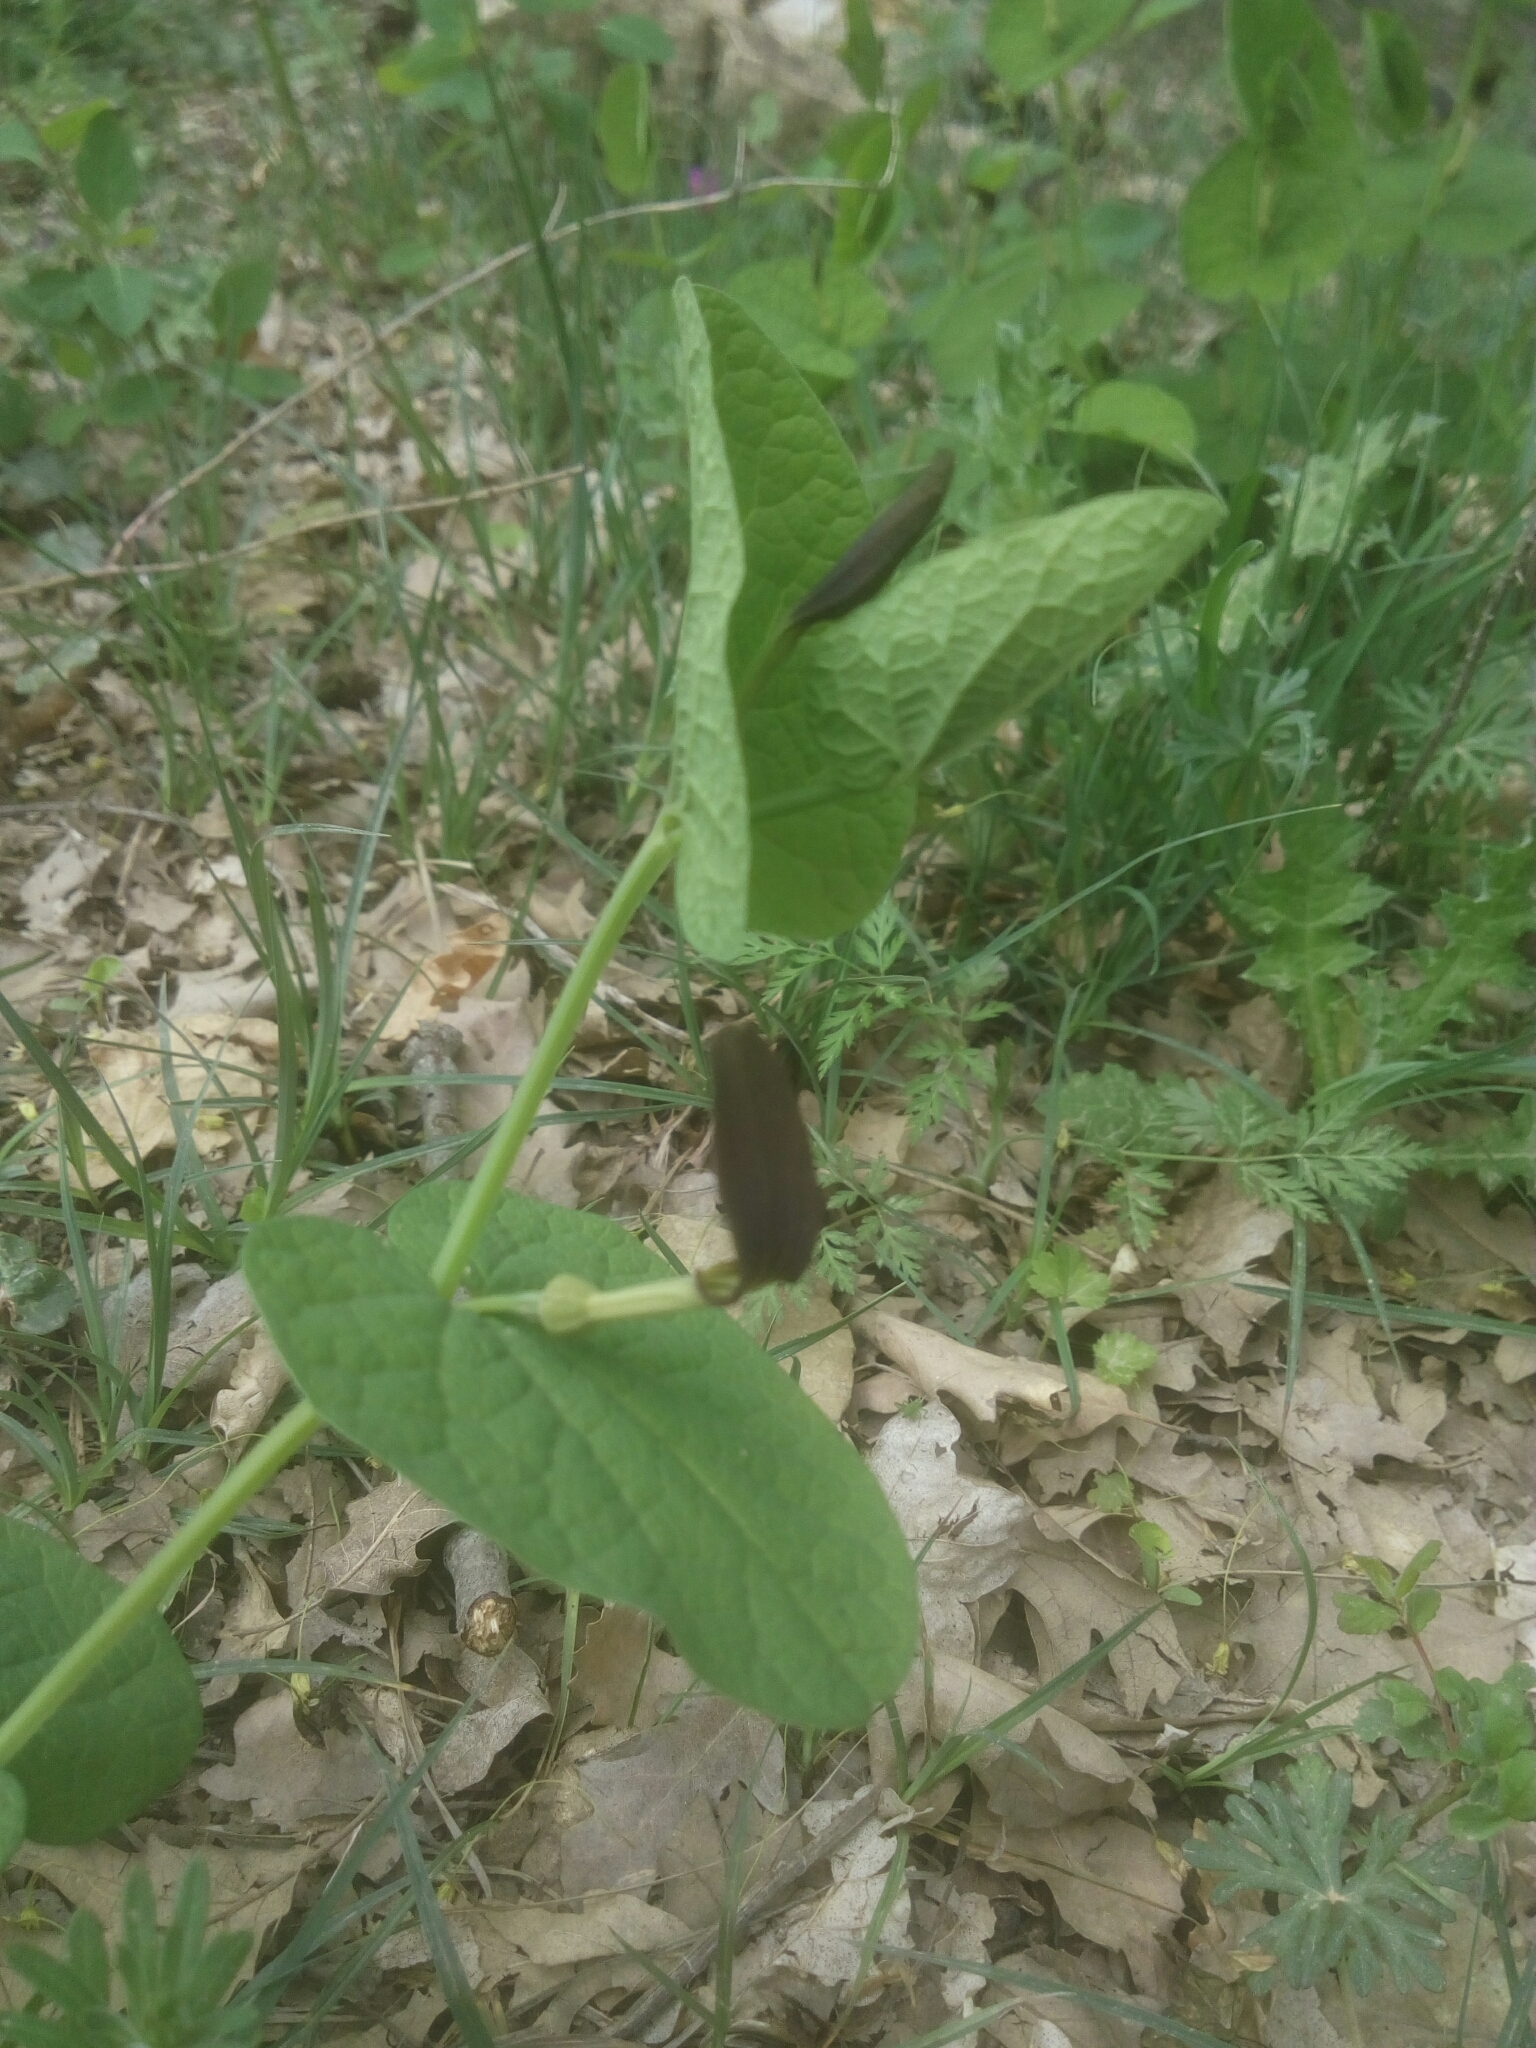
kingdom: Plantae
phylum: Tracheophyta
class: Magnoliopsida
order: Piperales
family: Aristolochiaceae
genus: Aristolochia
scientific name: Aristolochia rotunda
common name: Smearwort
